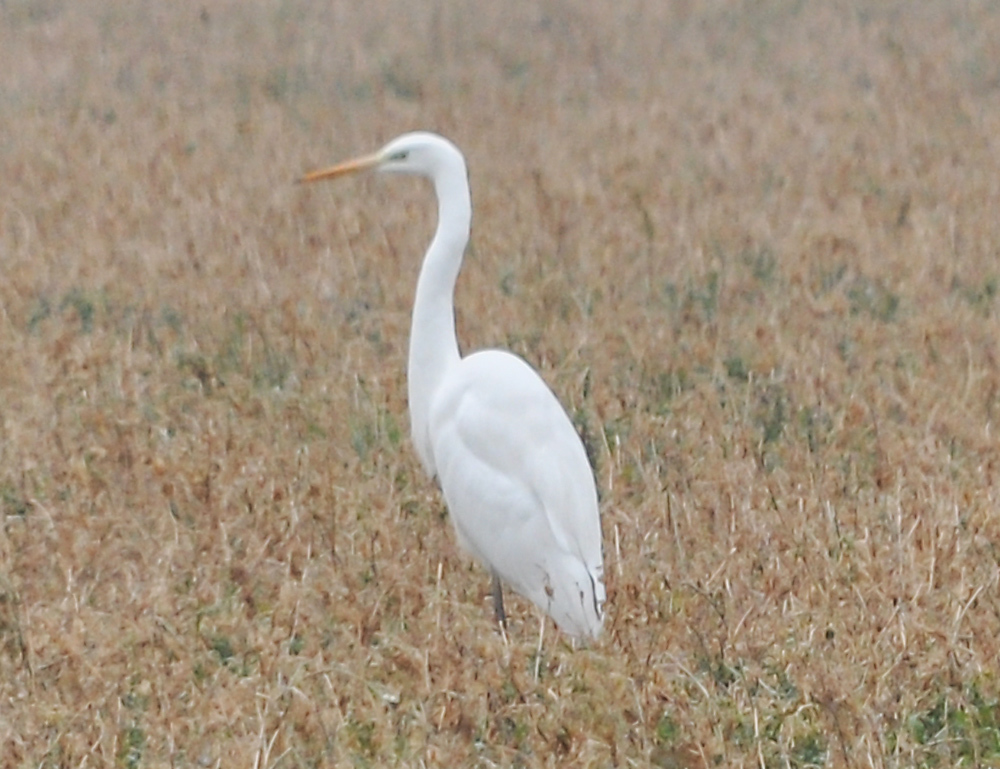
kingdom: Animalia
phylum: Chordata
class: Aves
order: Pelecaniformes
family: Ardeidae
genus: Ardea
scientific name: Ardea alba
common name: Great egret
